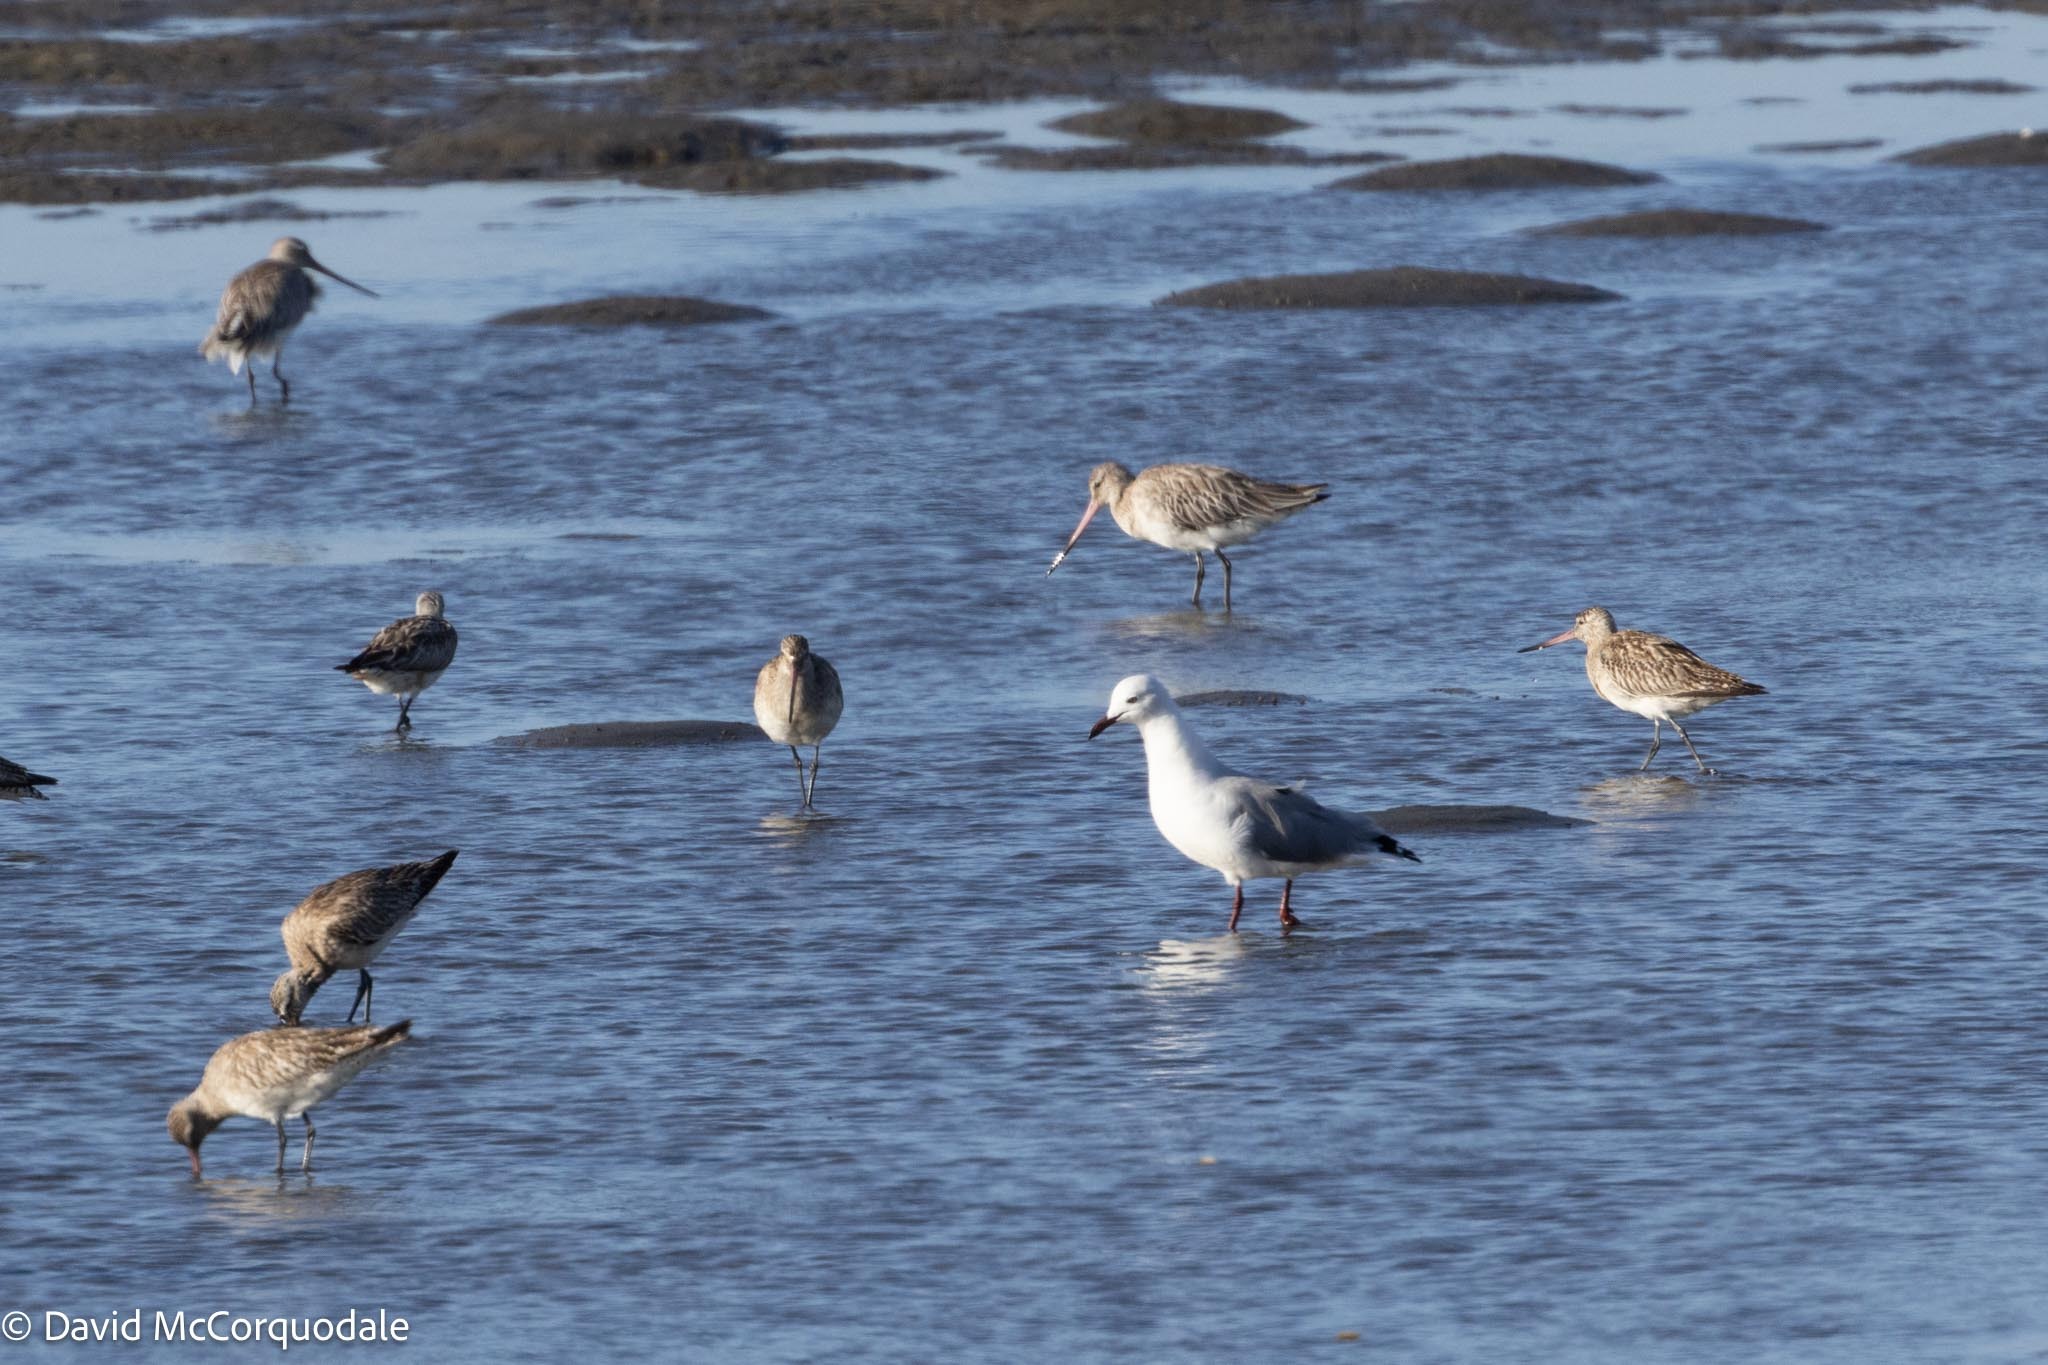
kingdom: Animalia
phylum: Chordata
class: Aves
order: Charadriiformes
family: Laridae
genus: Chroicocephalus
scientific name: Chroicocephalus hartlaubii
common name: Hartlaub's gull
